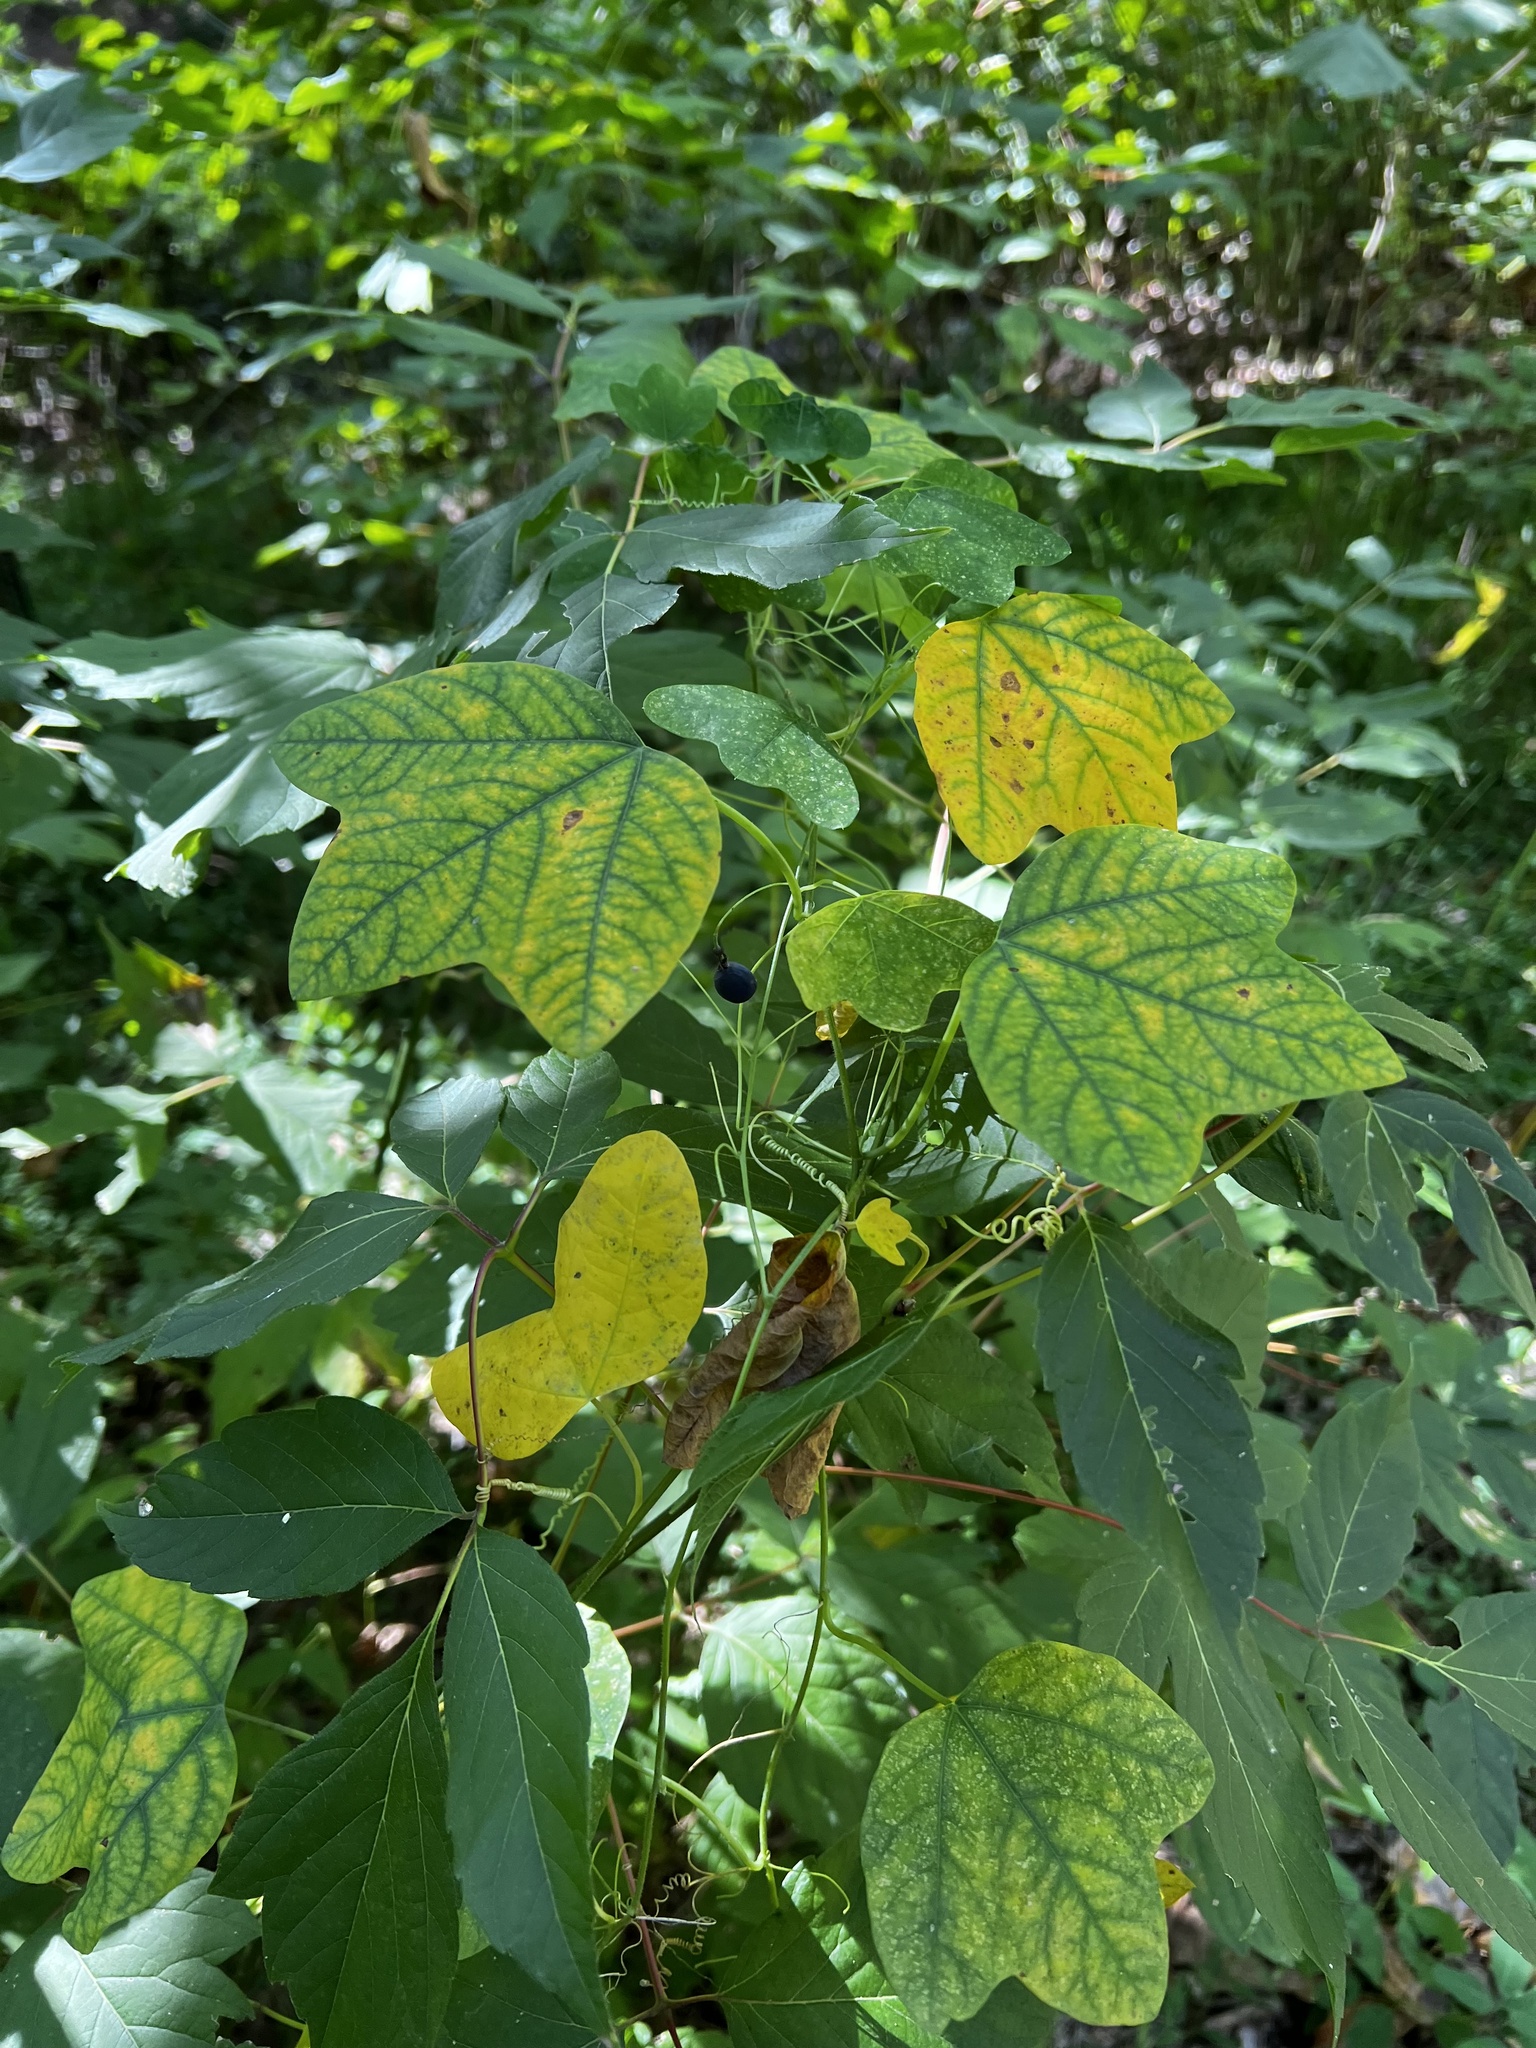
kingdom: Plantae
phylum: Tracheophyta
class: Magnoliopsida
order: Malpighiales
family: Passifloraceae
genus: Passiflora
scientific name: Passiflora lutea
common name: Yellow passionflower
